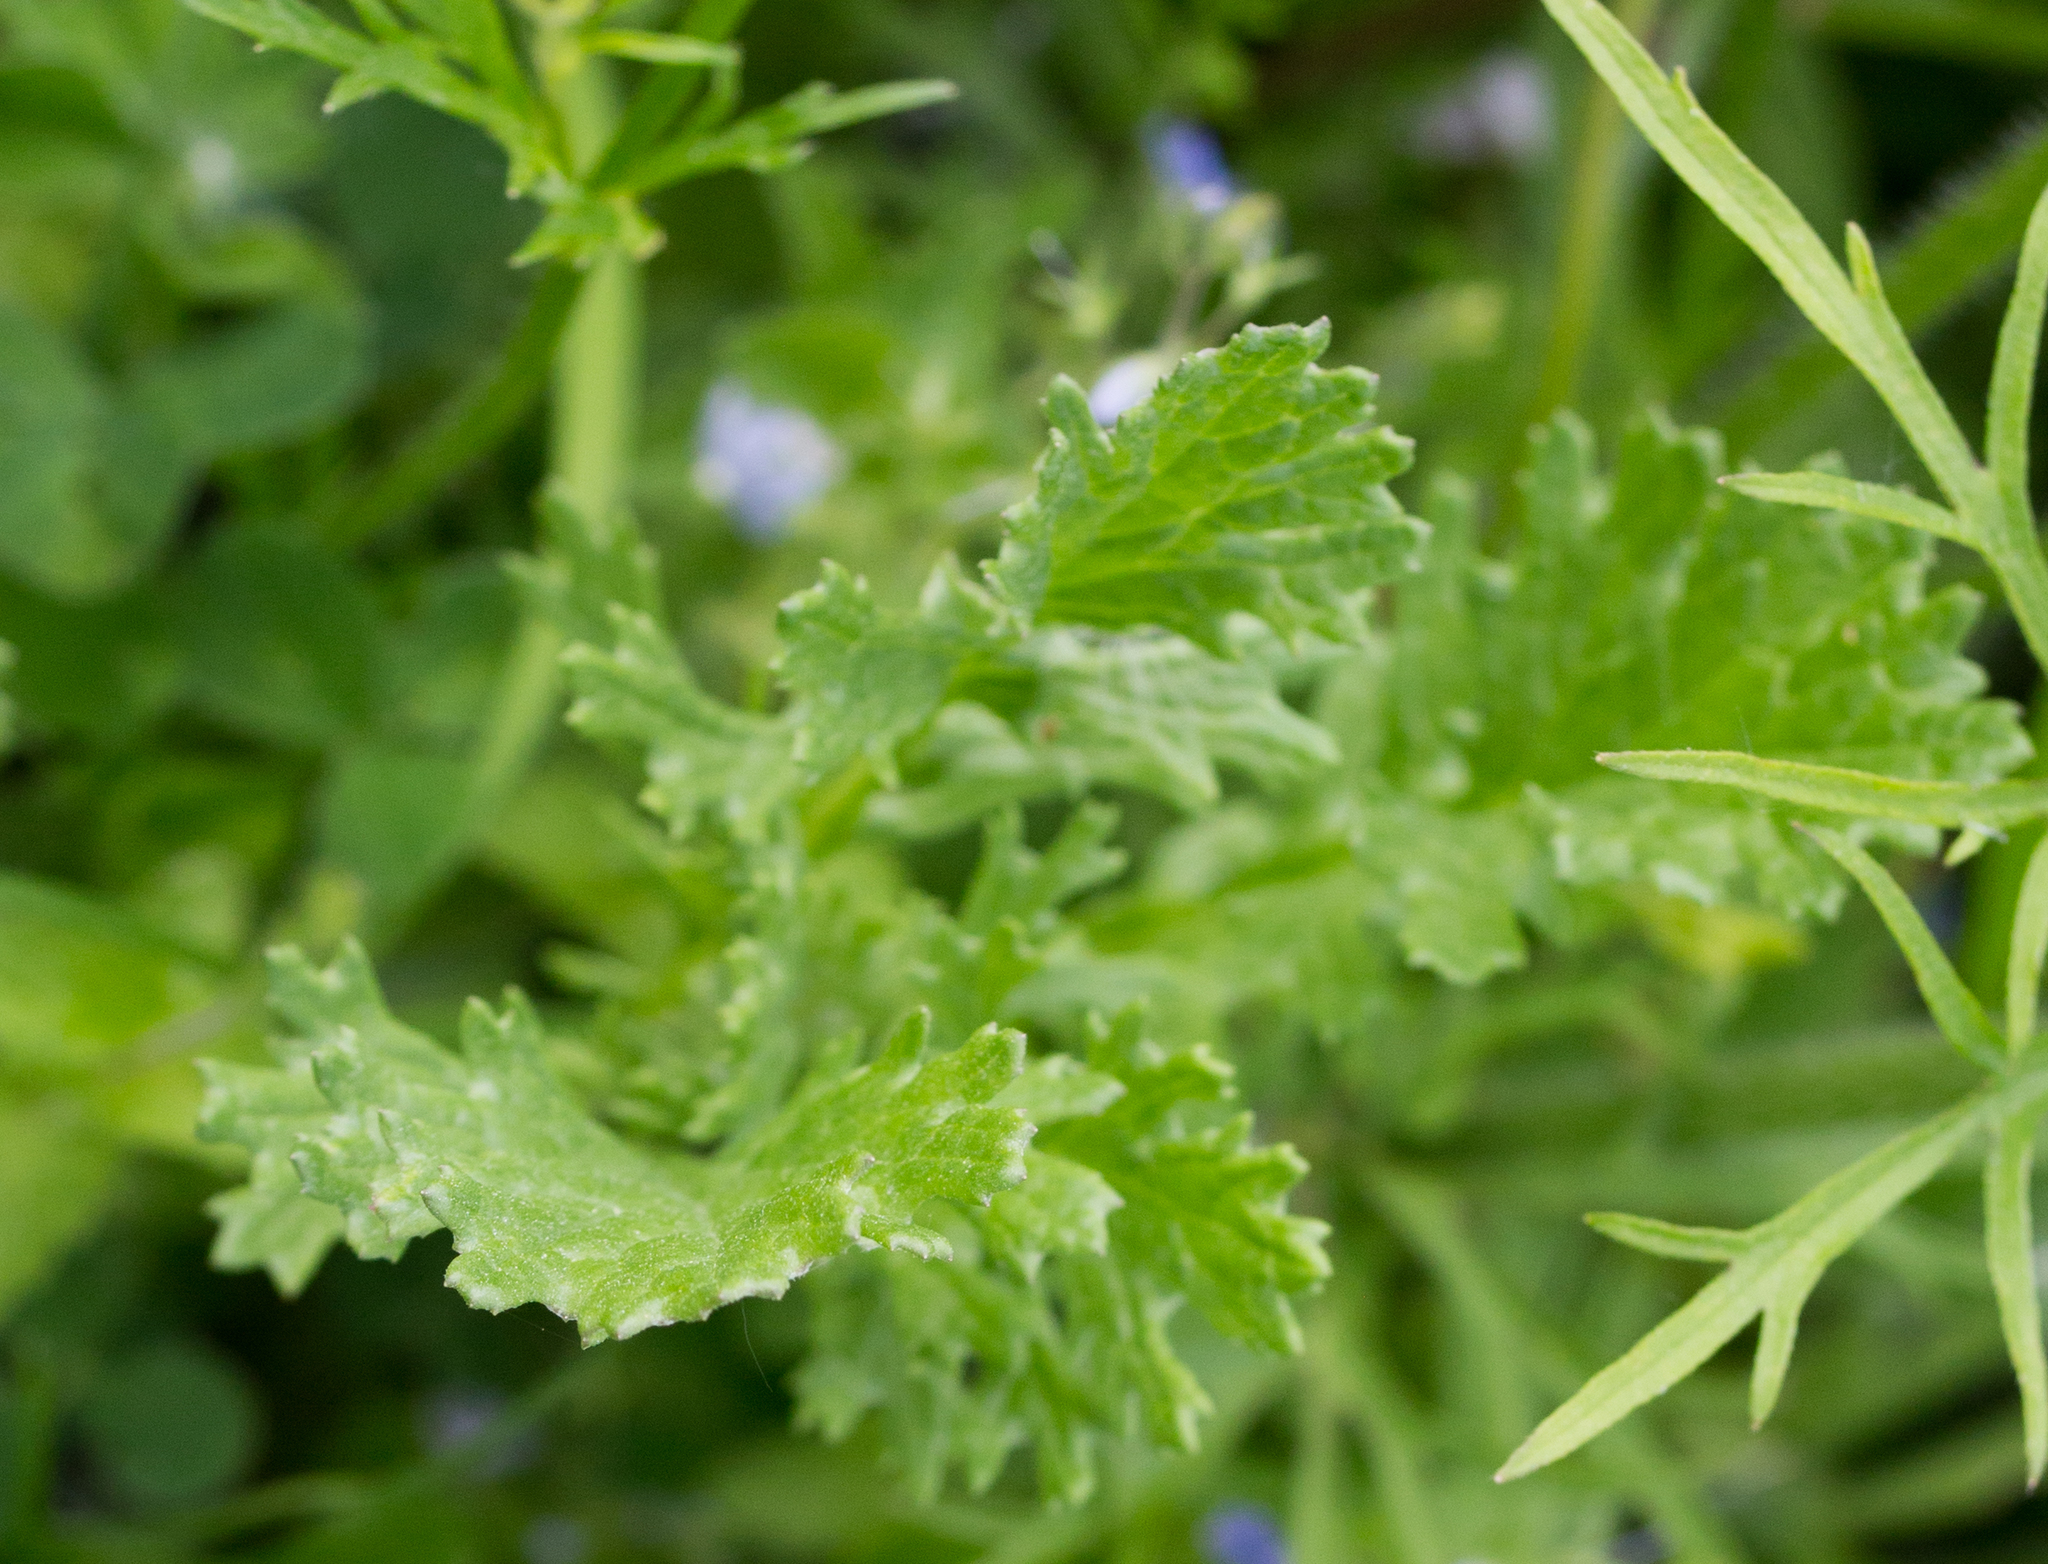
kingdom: Plantae
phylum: Tracheophyta
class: Magnoliopsida
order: Asterales
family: Asteraceae
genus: Jacobaea
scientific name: Jacobaea vulgaris
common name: Stinking willie
